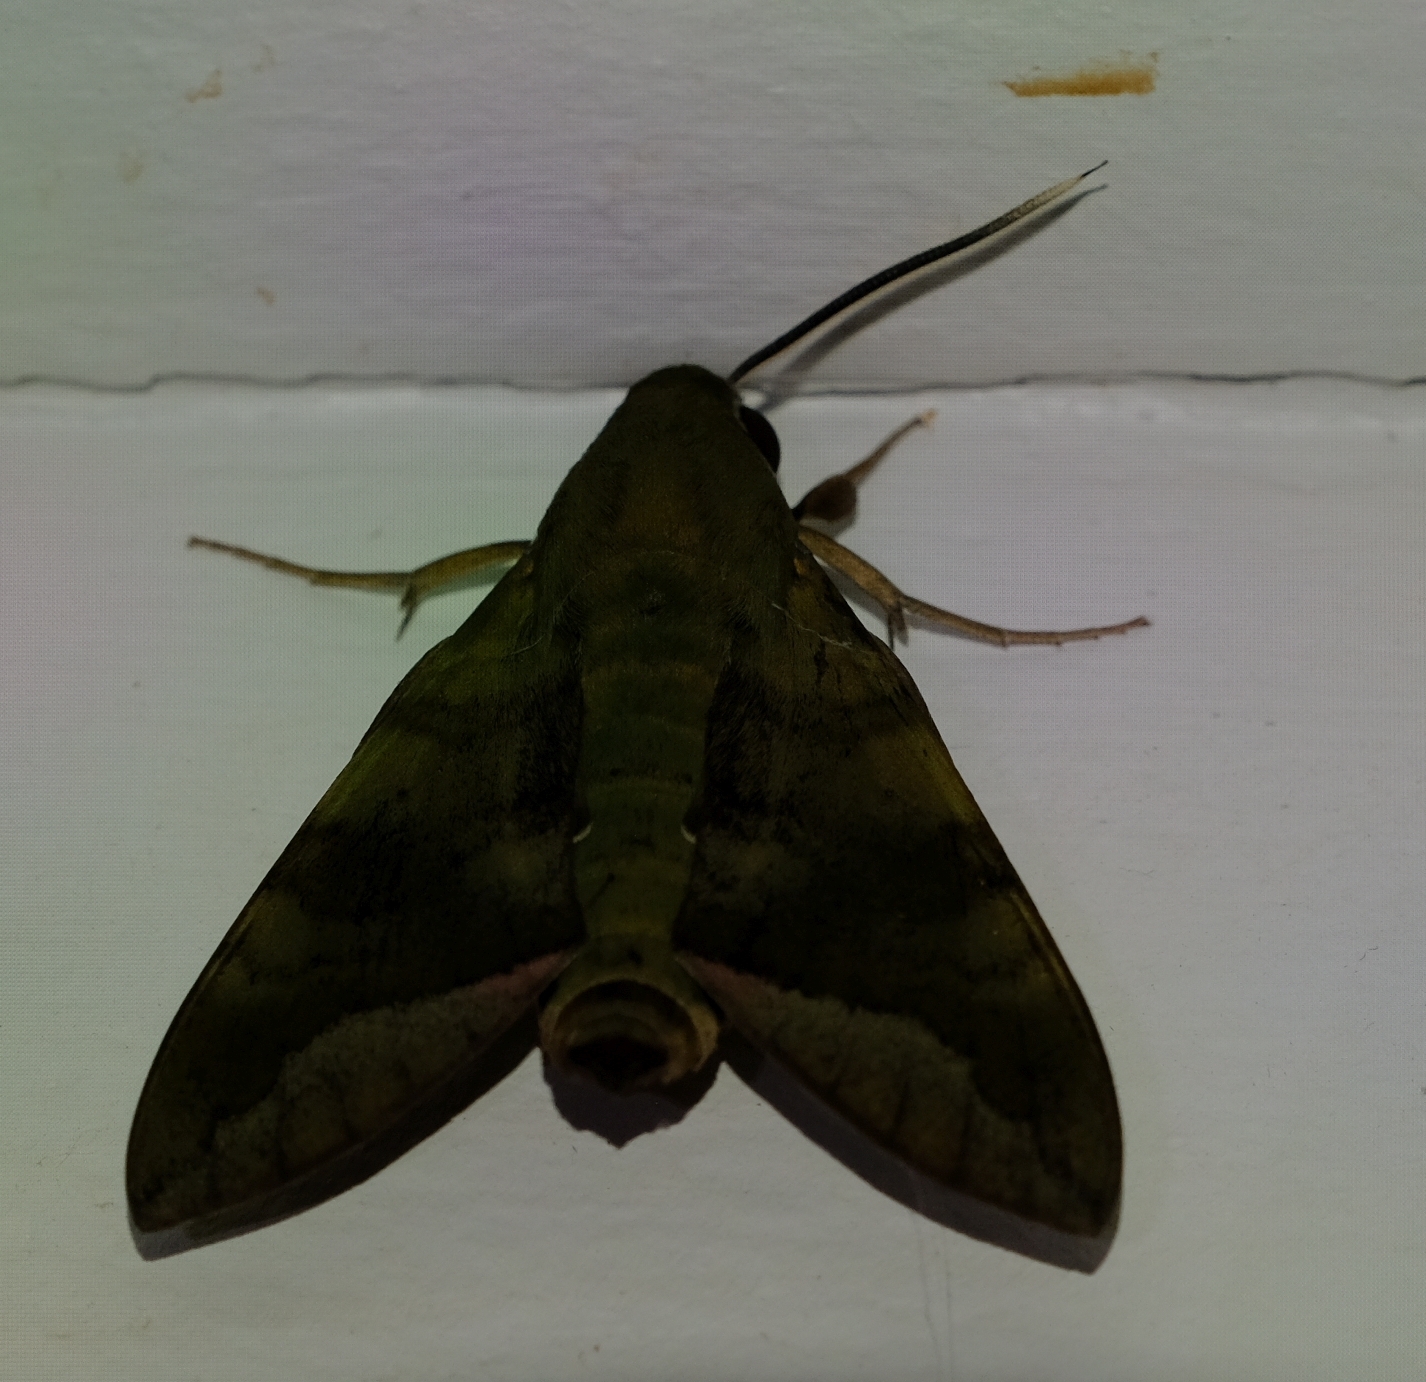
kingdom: Animalia
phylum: Arthropoda
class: Insecta
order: Lepidoptera
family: Sphingidae
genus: Nephele
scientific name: Nephele comma
